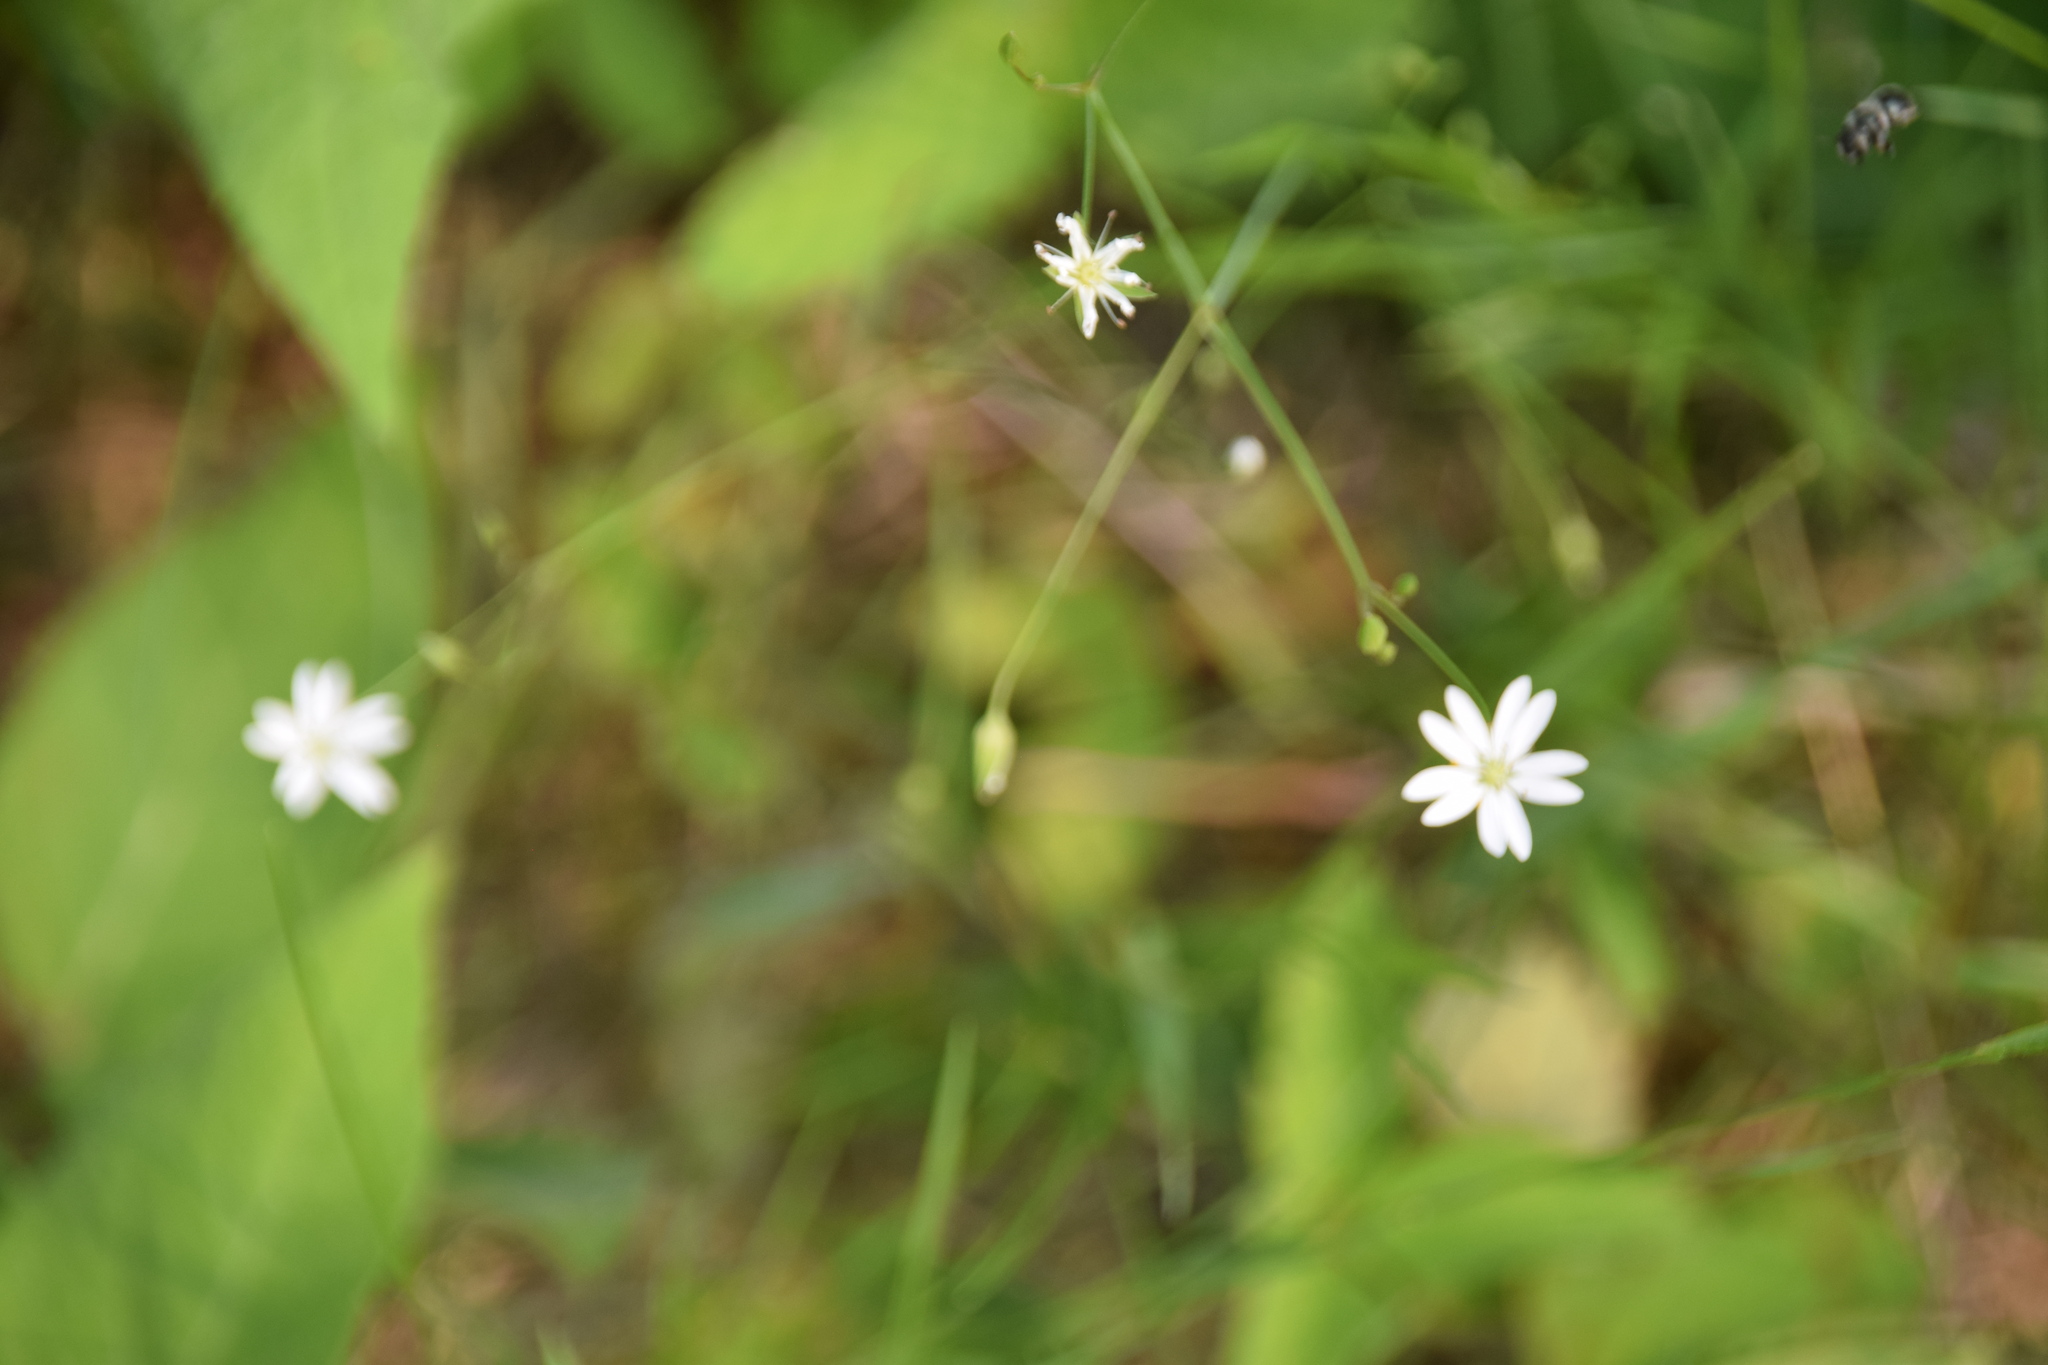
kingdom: Plantae
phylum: Tracheophyta
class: Magnoliopsida
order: Caryophyllales
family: Caryophyllaceae
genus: Stellaria
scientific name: Stellaria graminea
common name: Grass-like starwort
